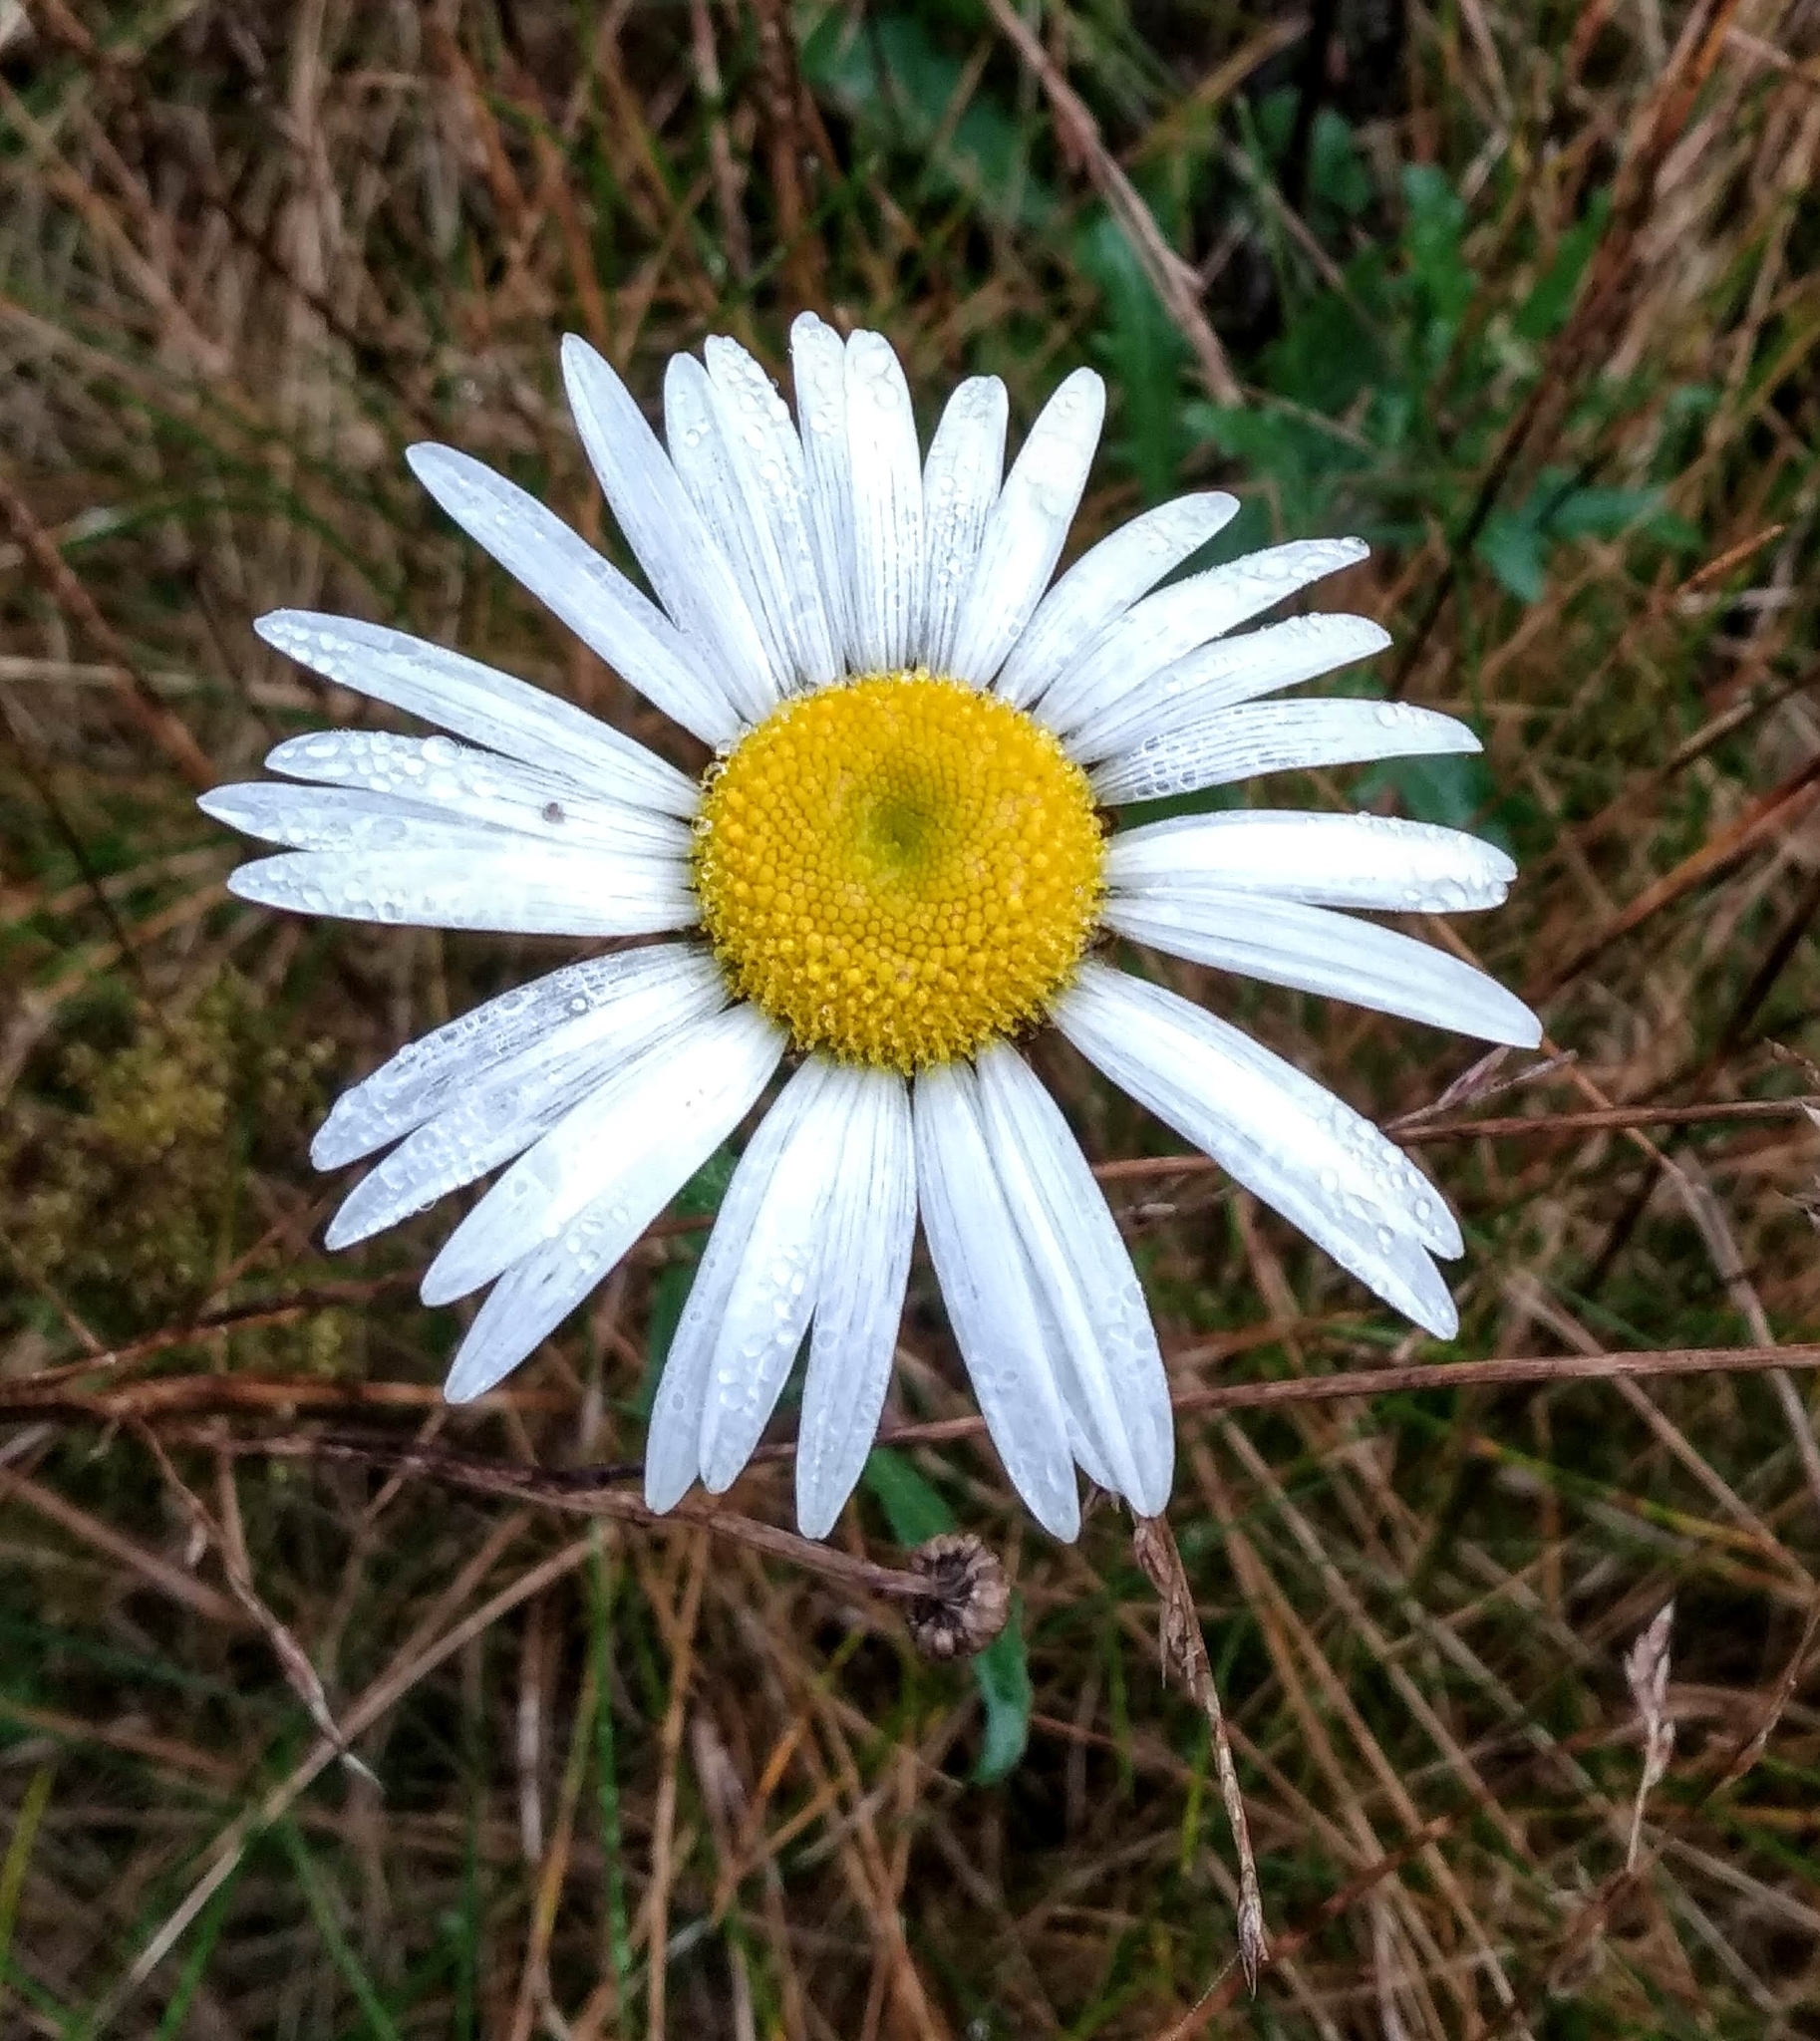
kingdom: Plantae
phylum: Tracheophyta
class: Magnoliopsida
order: Asterales
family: Asteraceae
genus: Leucanthemum
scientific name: Leucanthemum vulgare
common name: Oxeye daisy
